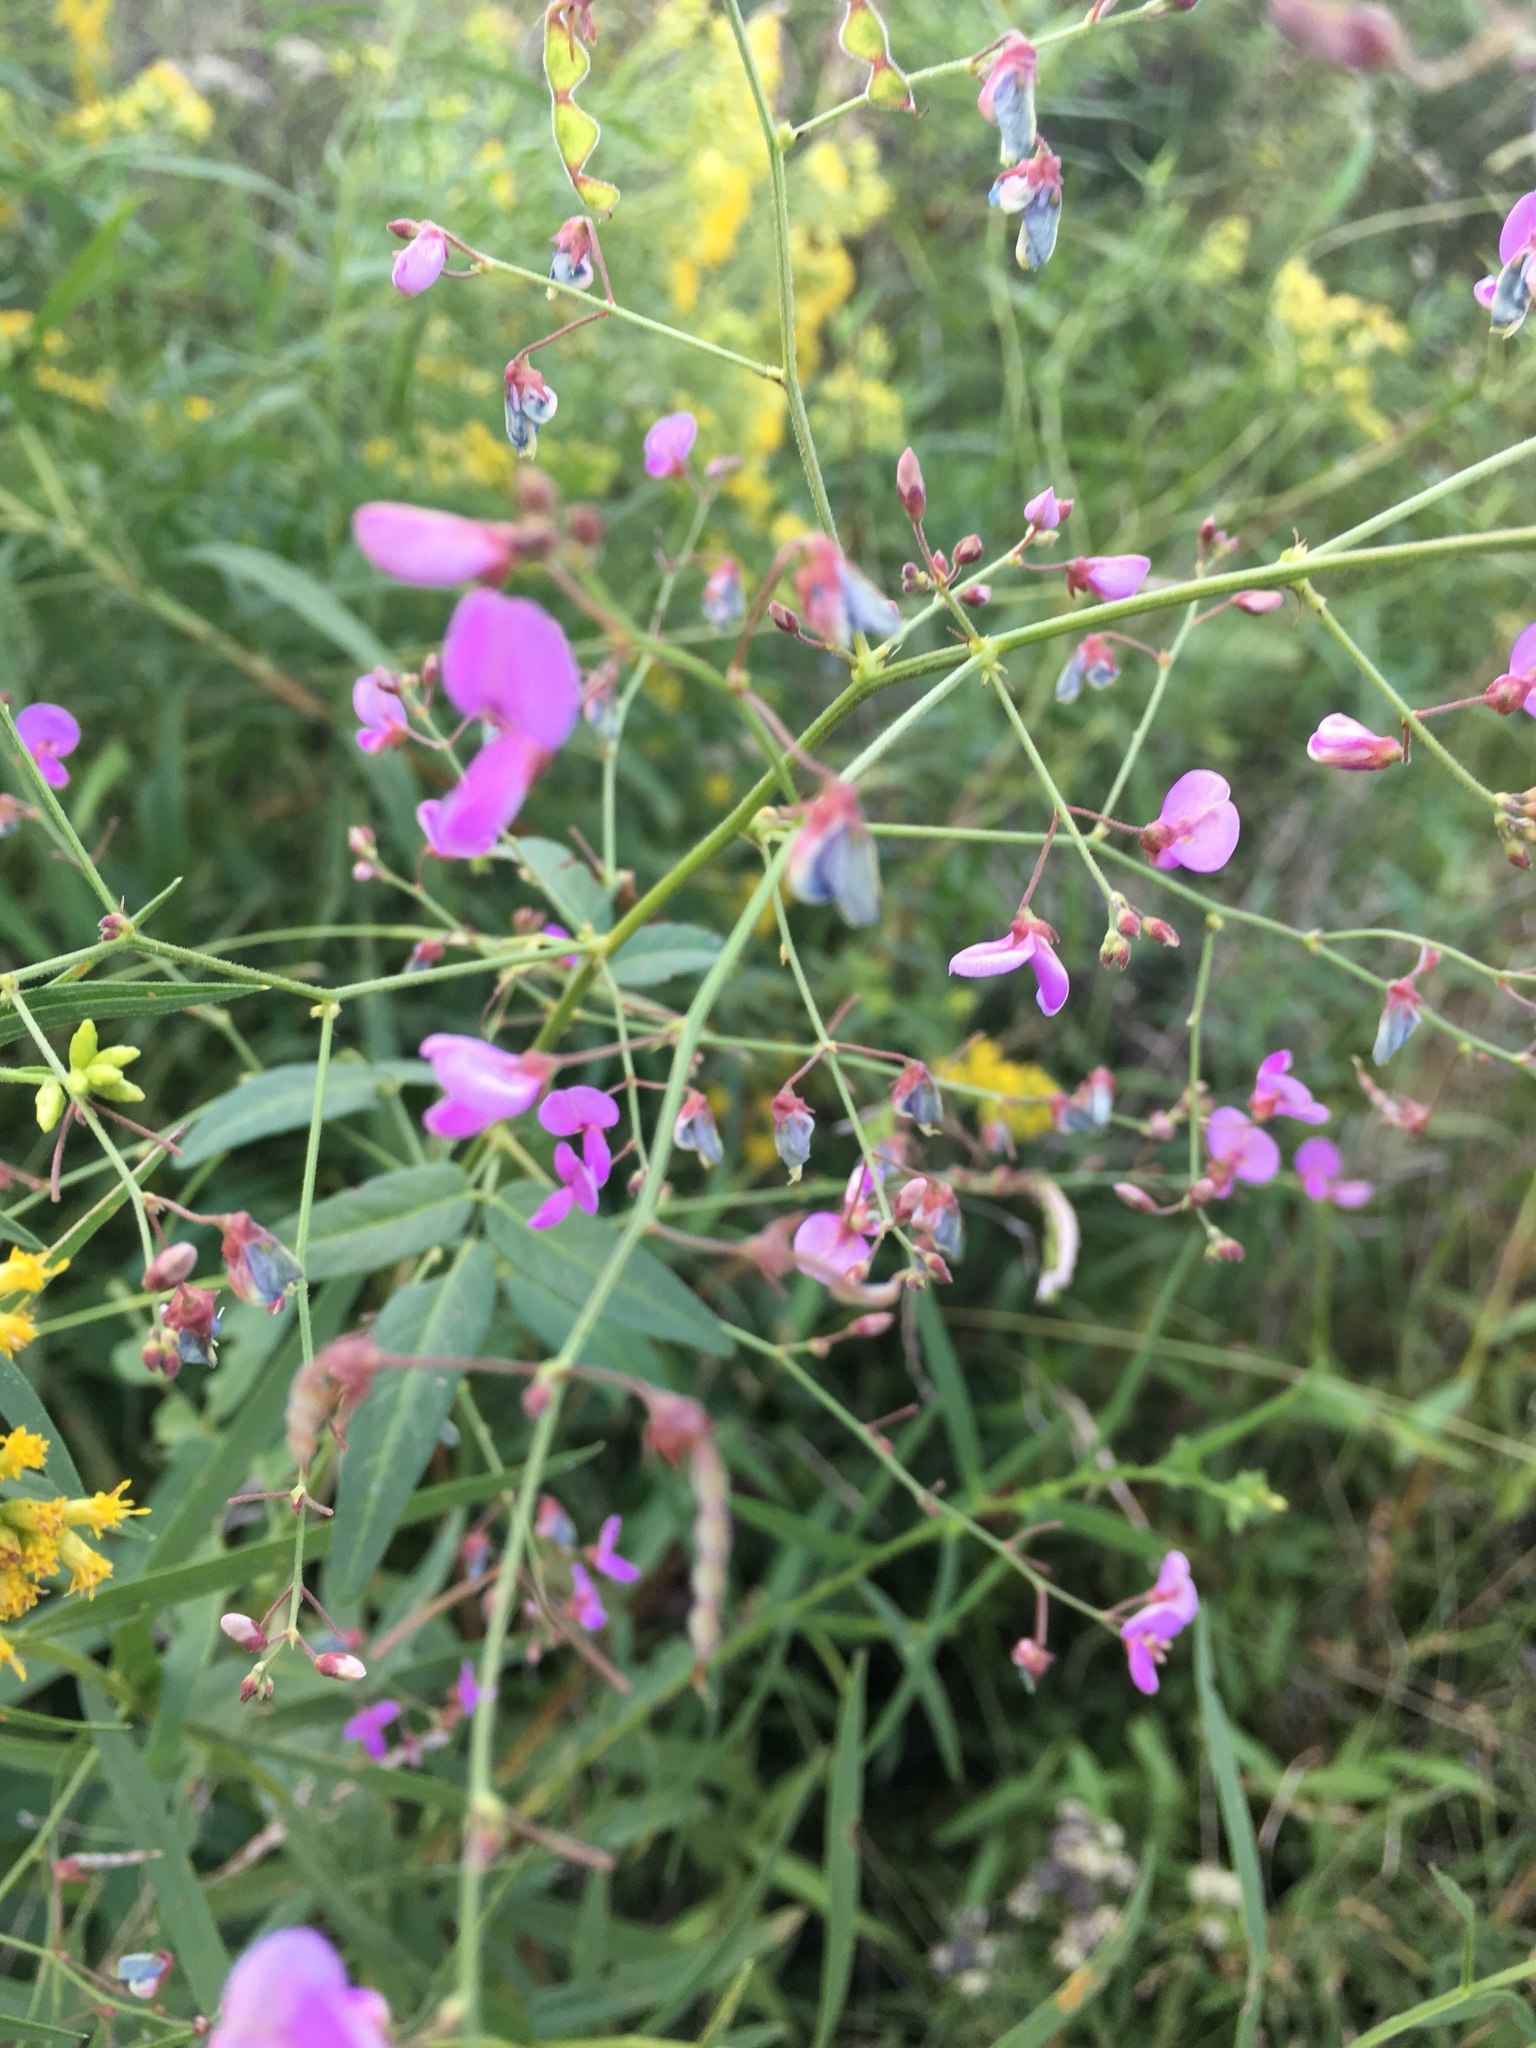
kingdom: Plantae
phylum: Tracheophyta
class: Magnoliopsida
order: Fabales
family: Fabaceae
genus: Desmodium
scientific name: Desmodium paniculatum
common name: Panicled tick-clover
